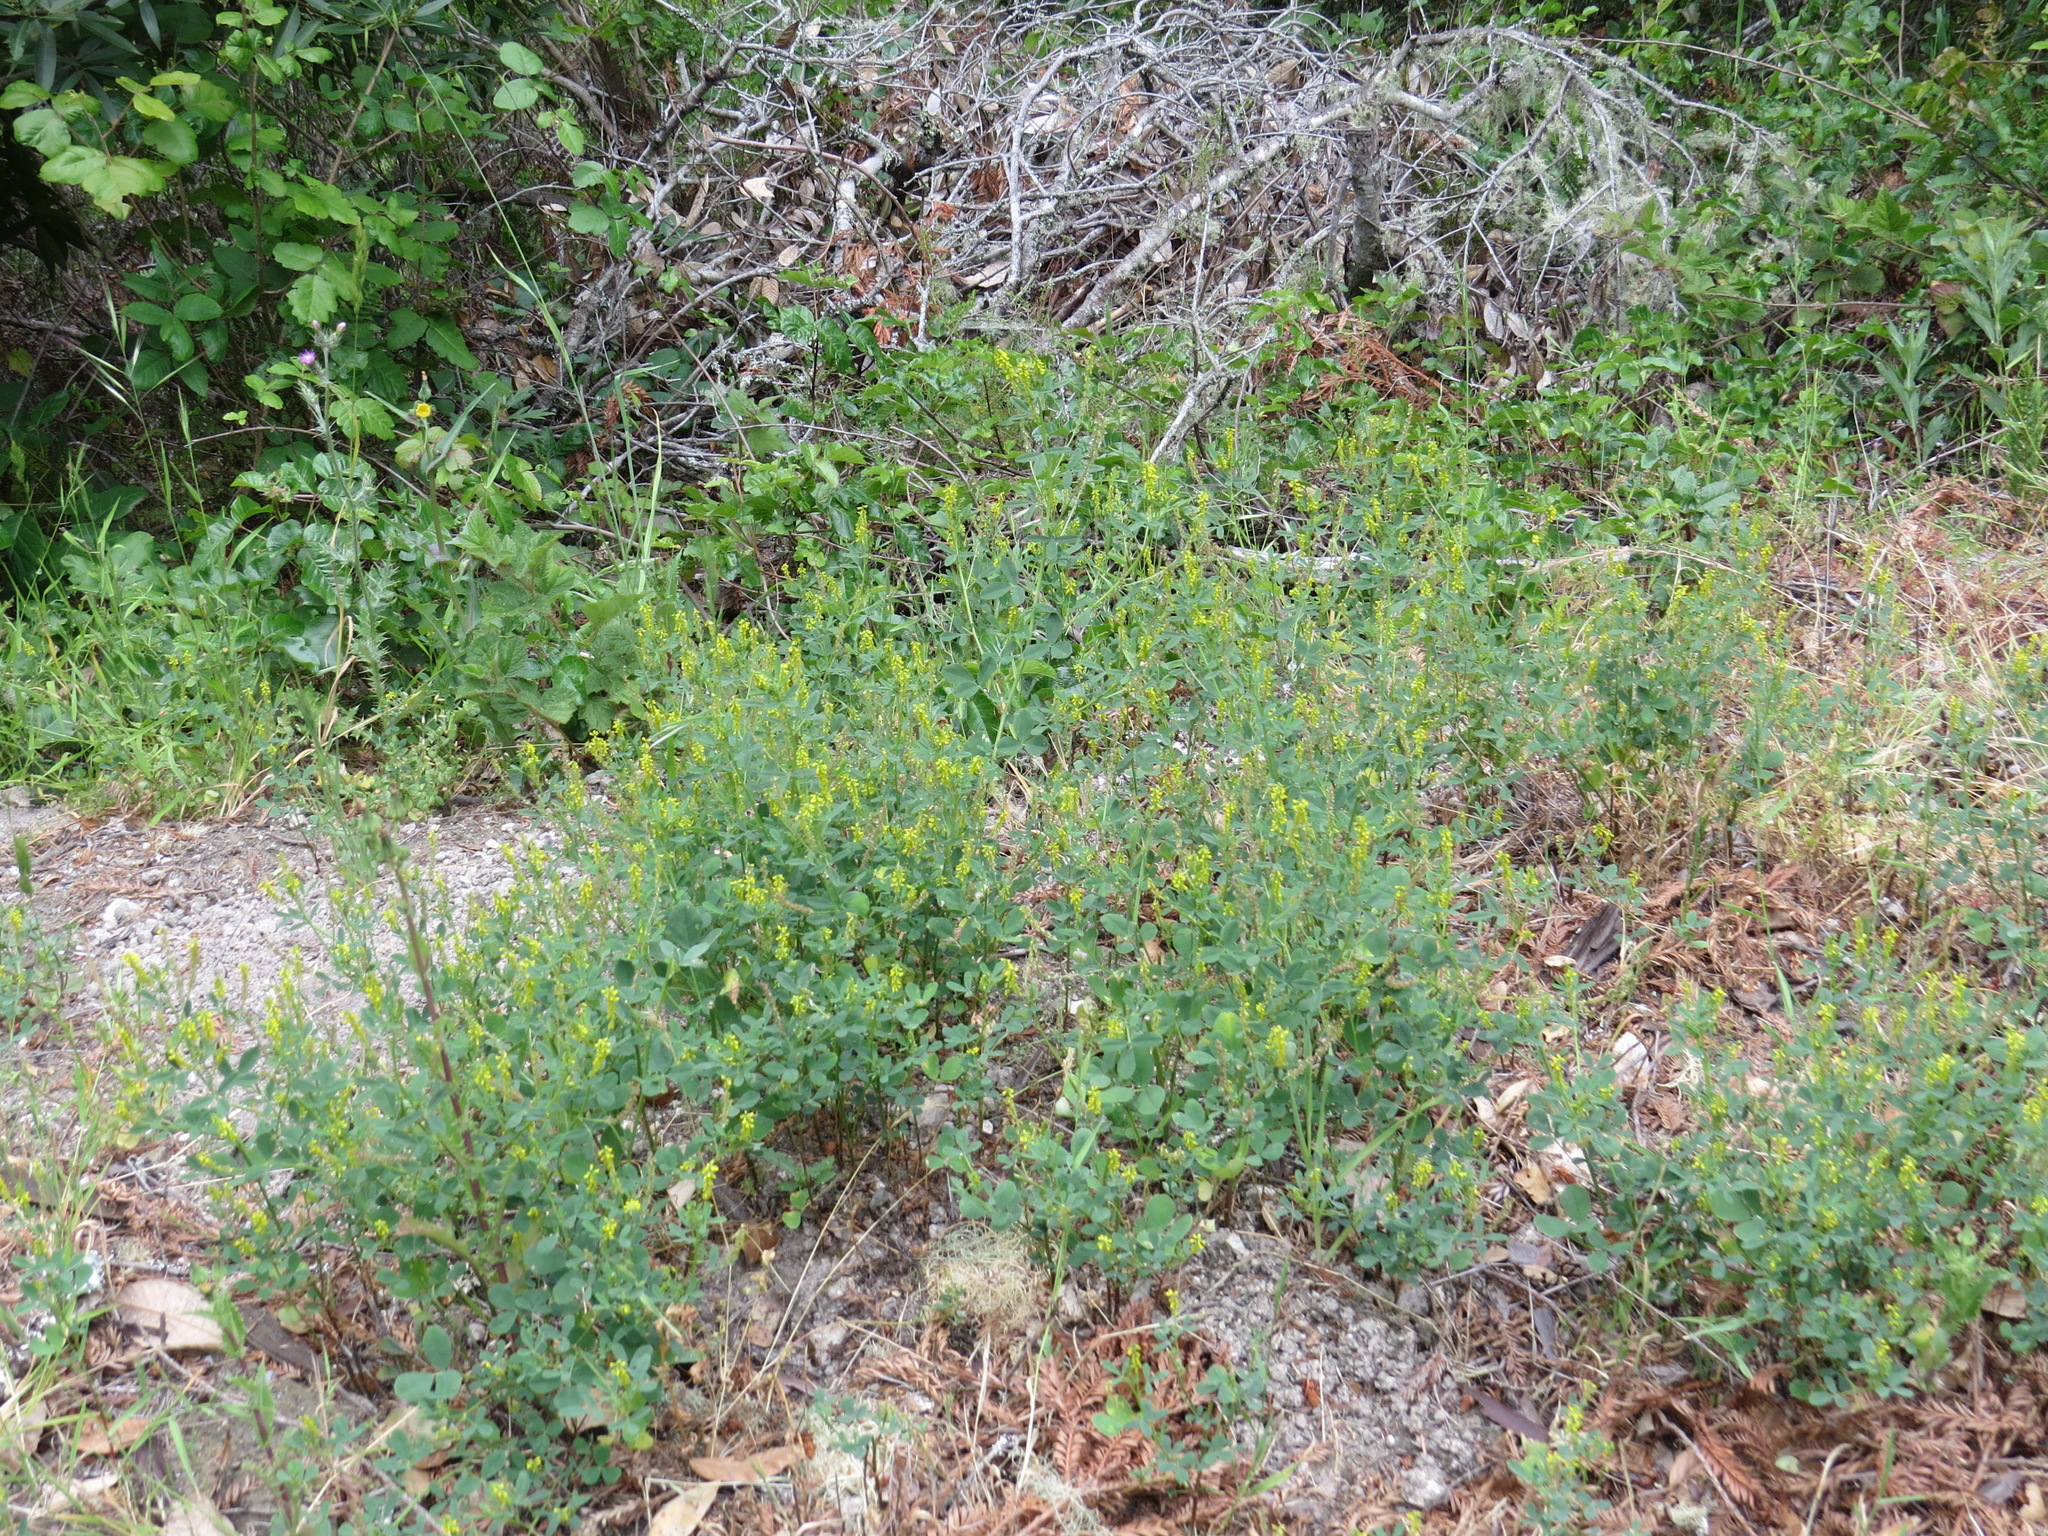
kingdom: Plantae
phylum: Tracheophyta
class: Magnoliopsida
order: Fabales
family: Fabaceae
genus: Melilotus
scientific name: Melilotus indicus
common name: Small melilot
